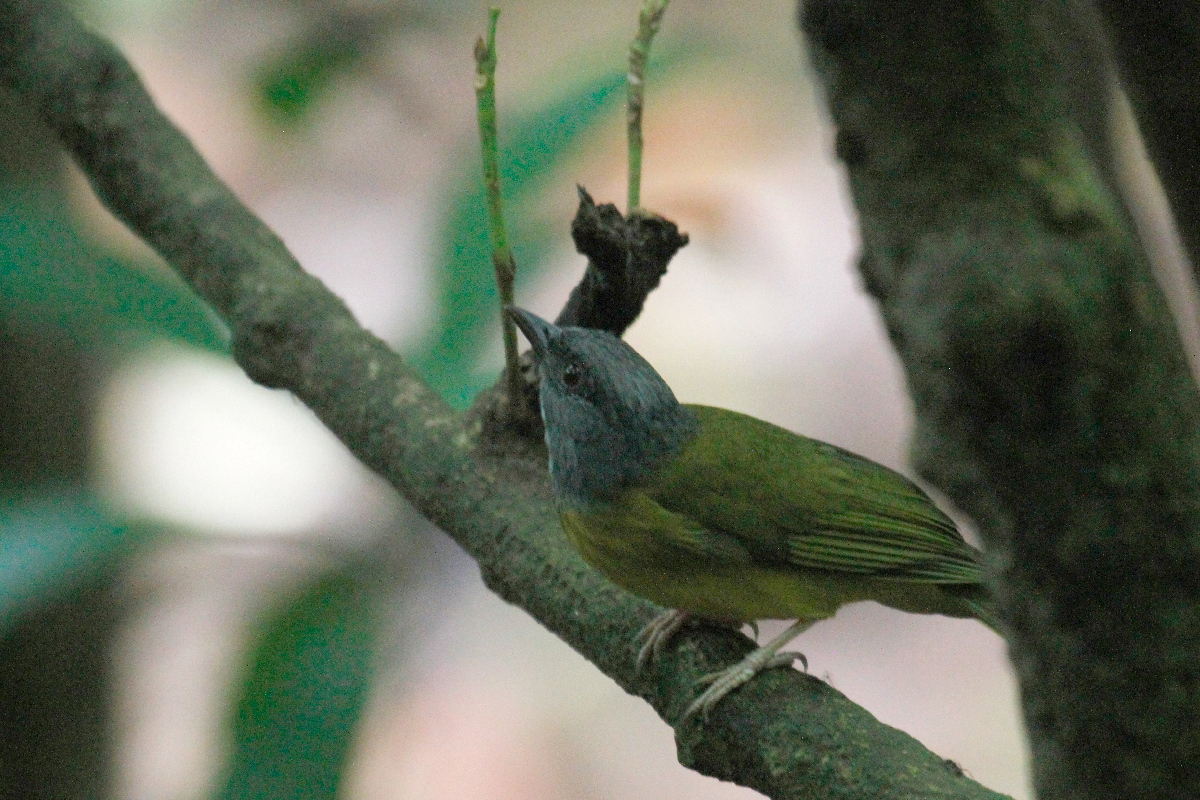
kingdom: Animalia
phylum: Chordata
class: Aves
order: Passeriformes
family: Thraupidae
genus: Eucometis
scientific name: Eucometis penicillata
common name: Grey-headed tanager
